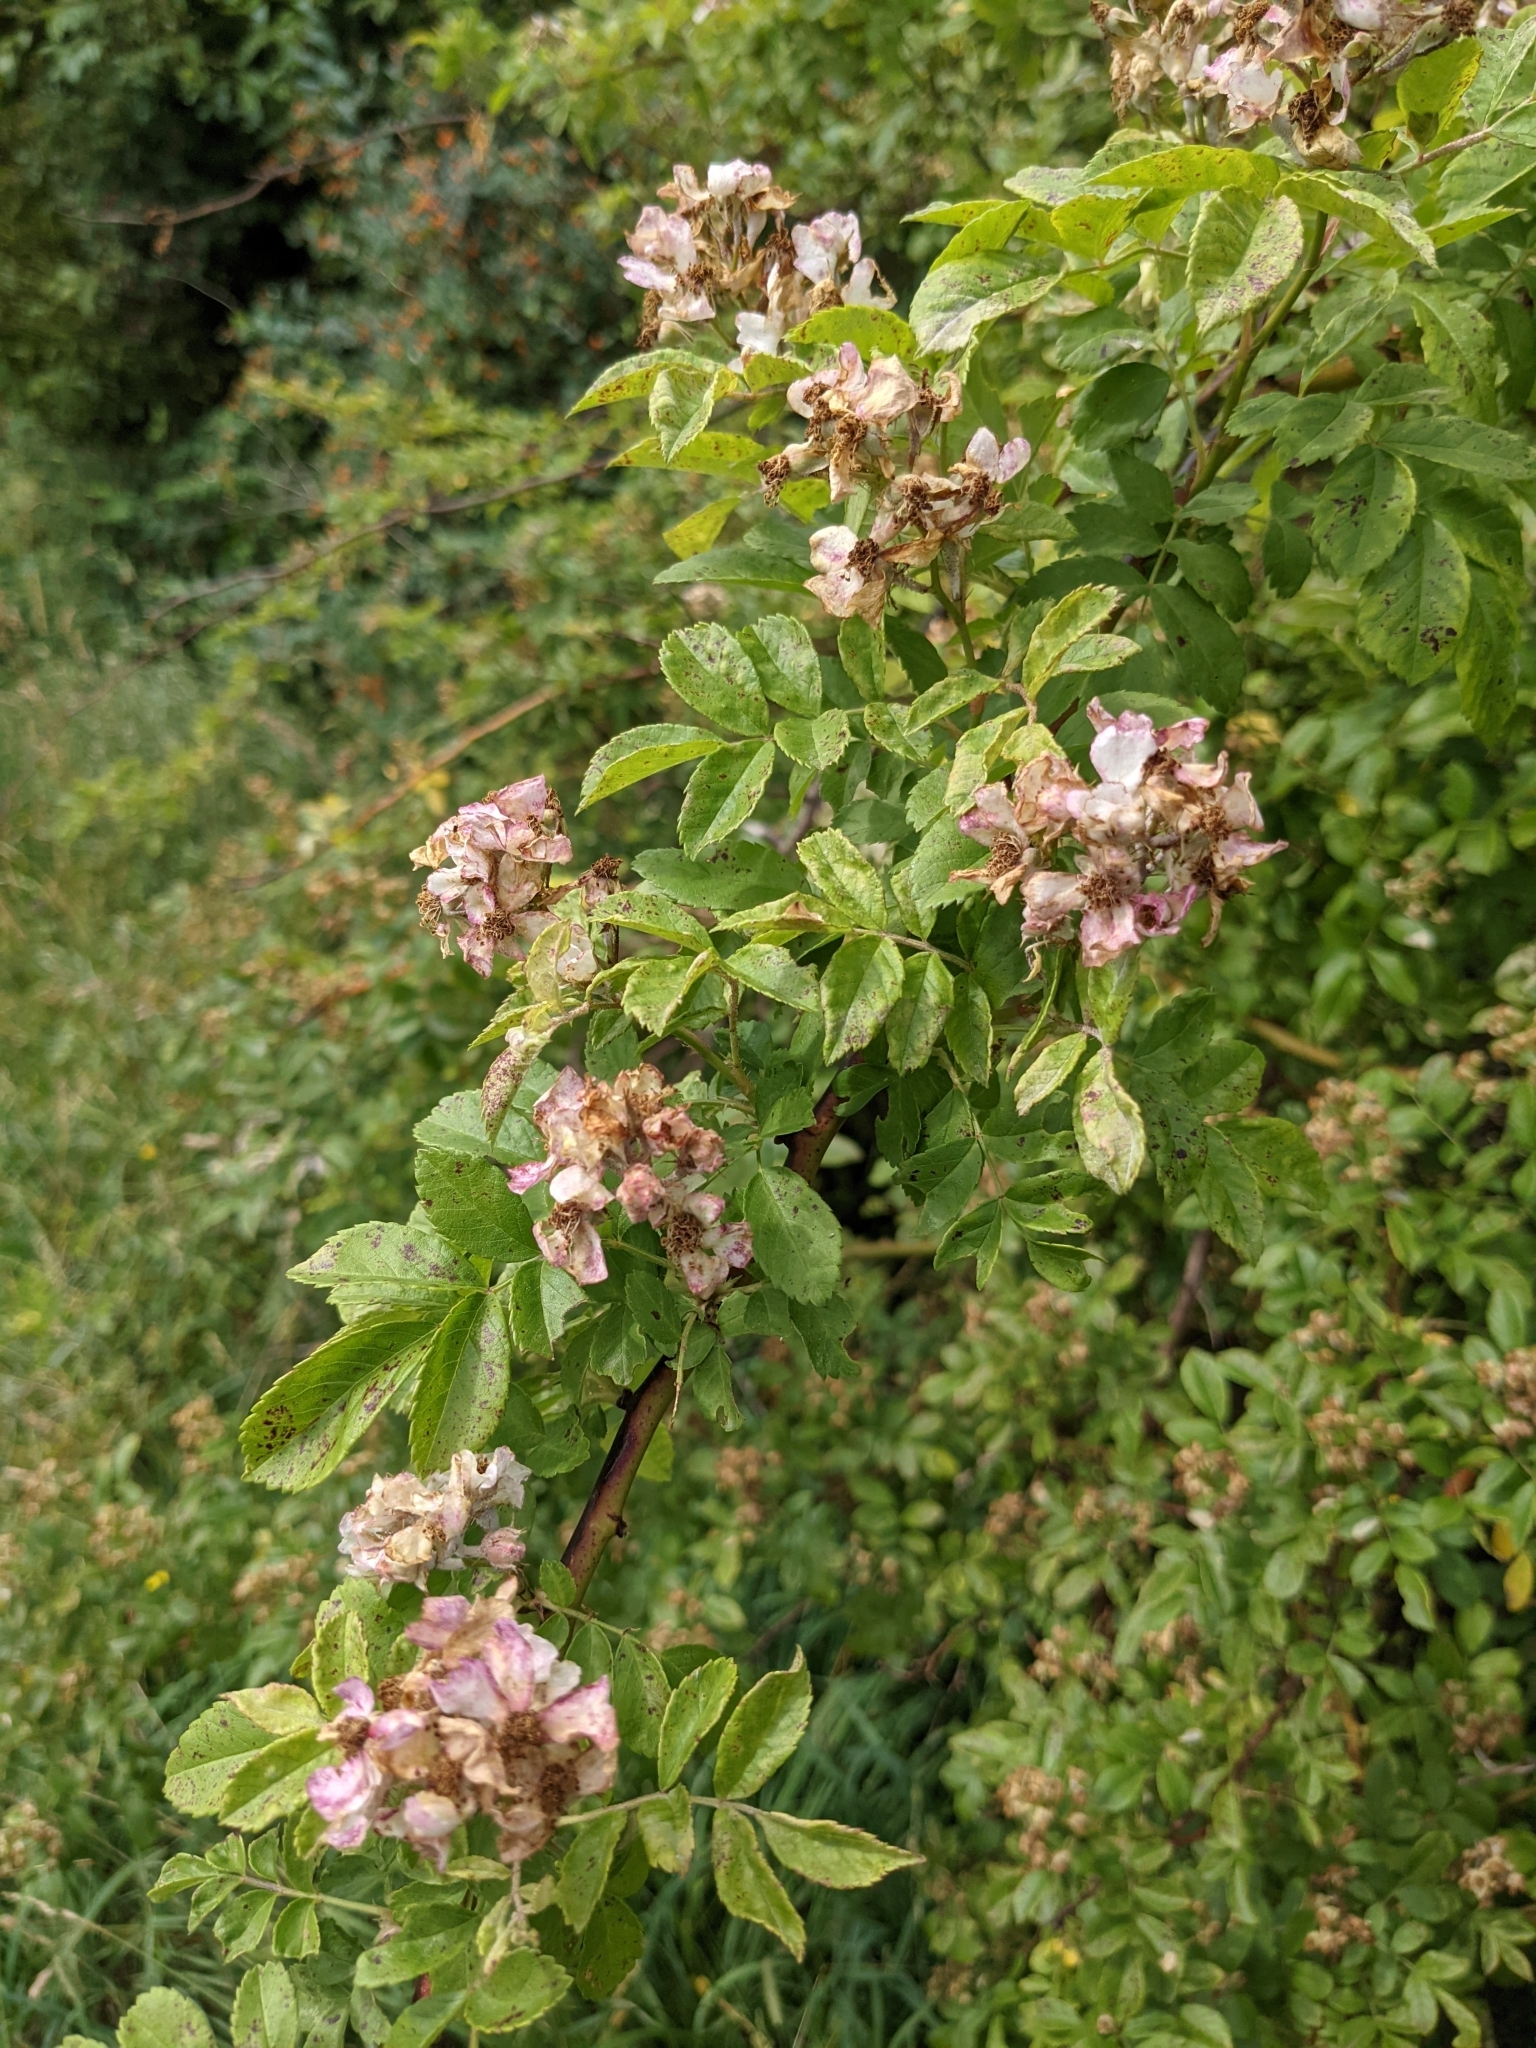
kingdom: Plantae
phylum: Tracheophyta
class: Magnoliopsida
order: Rosales
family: Rosaceae
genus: Rosa
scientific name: Rosa multiflora
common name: Multiflora rose
